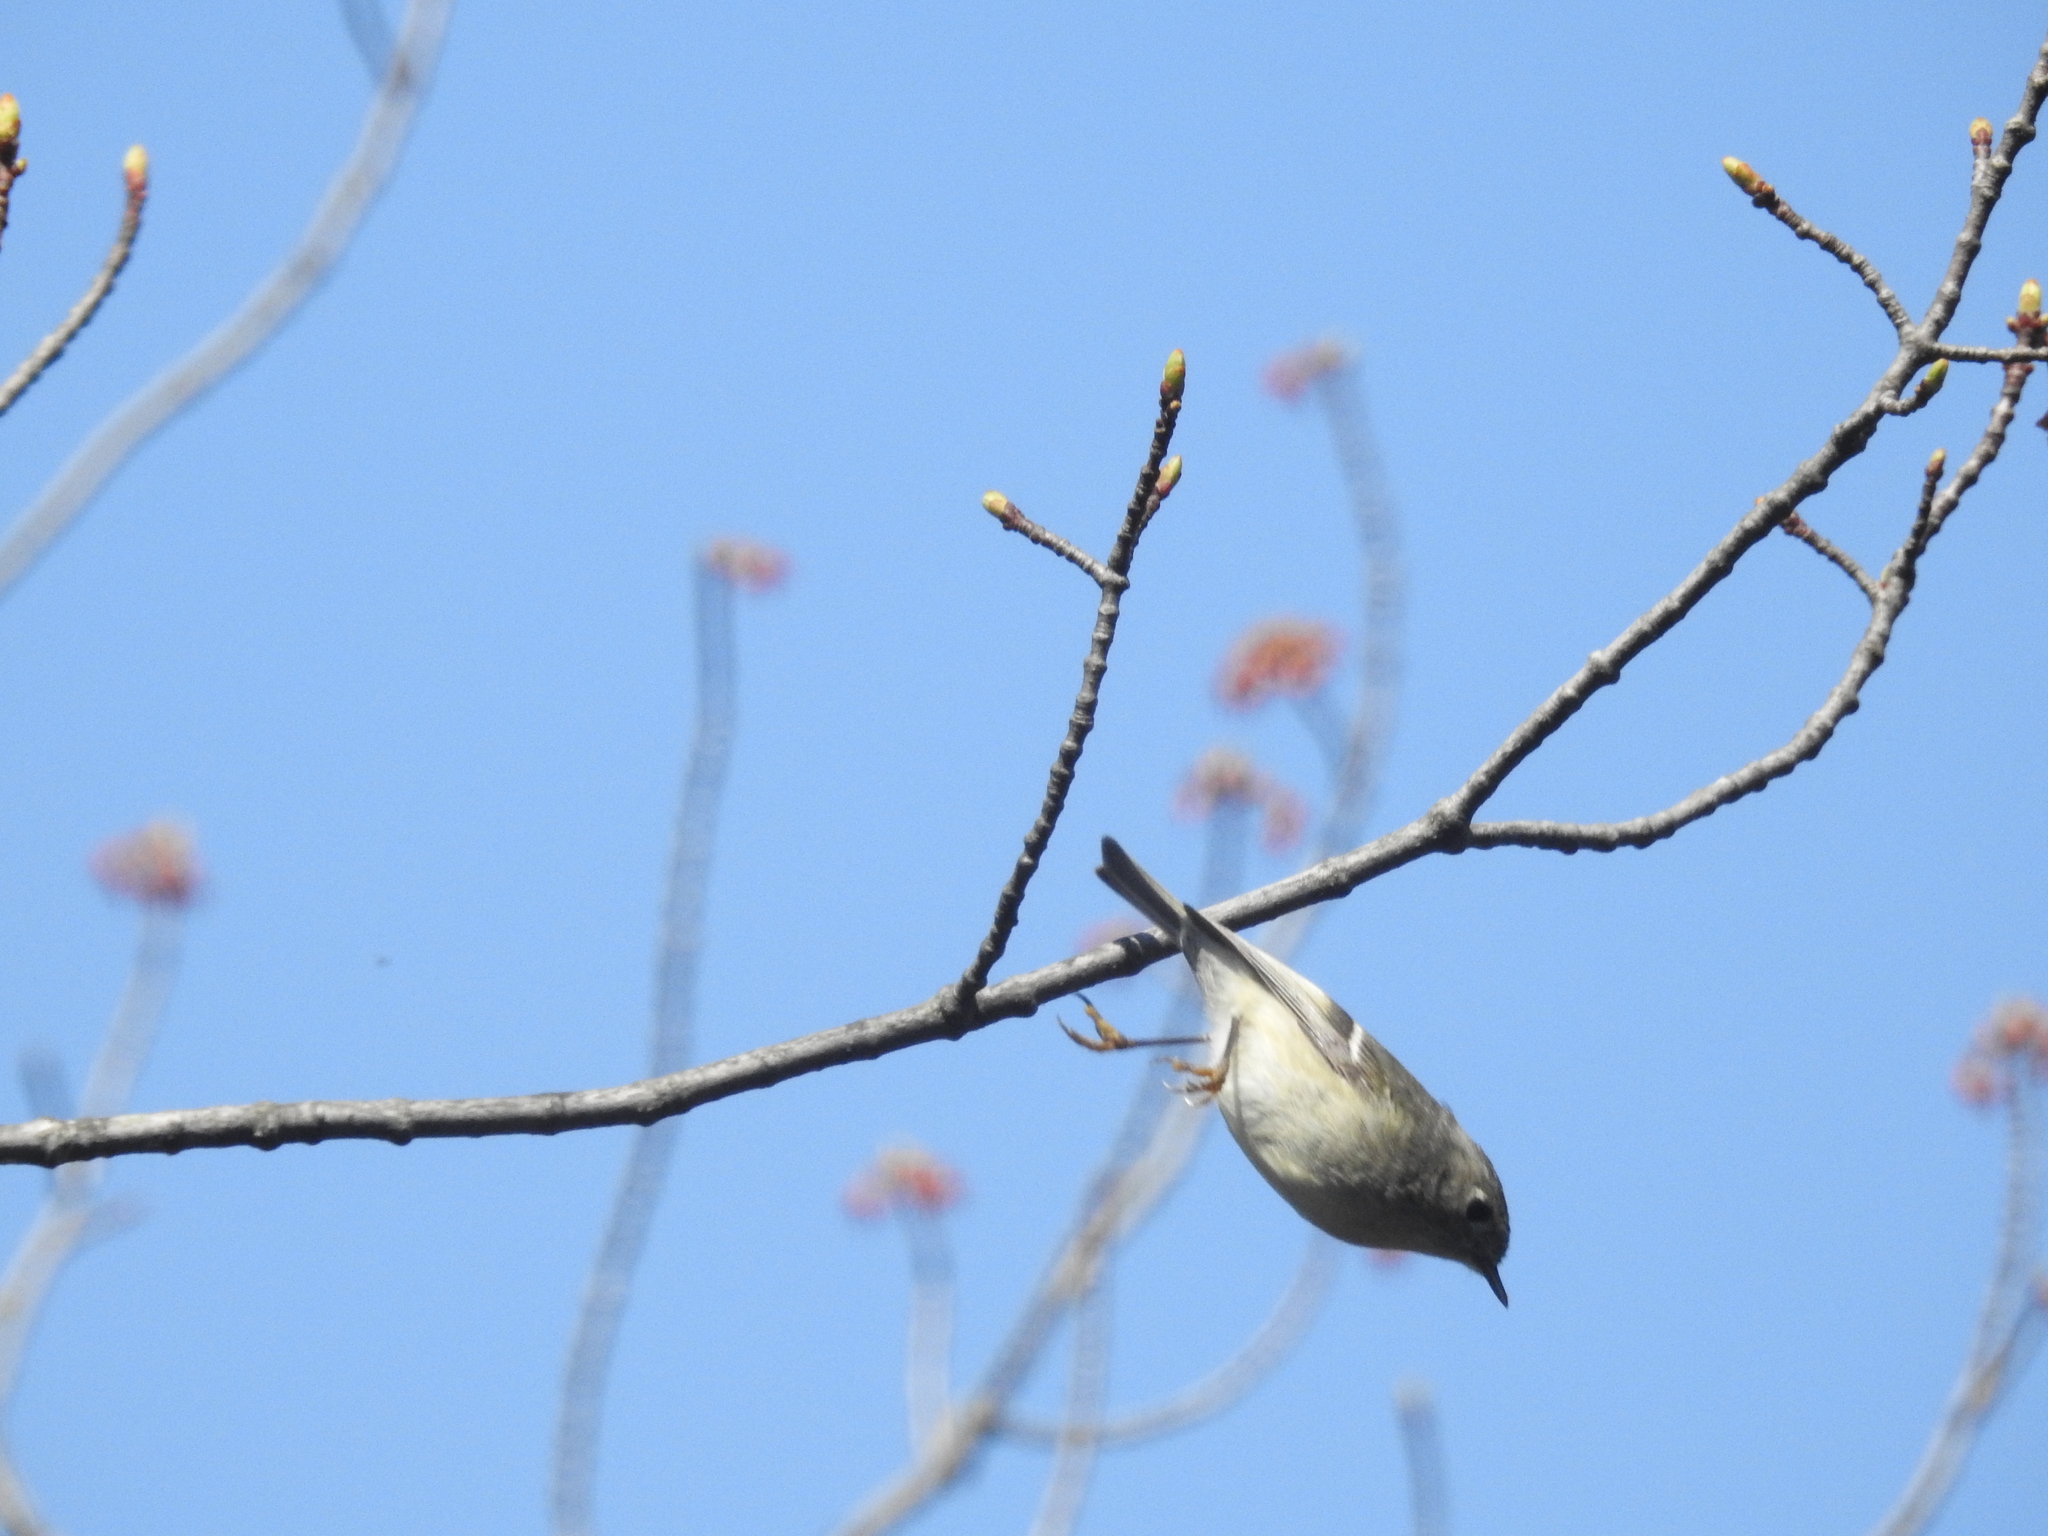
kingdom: Animalia
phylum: Chordata
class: Aves
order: Passeriformes
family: Regulidae
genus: Regulus
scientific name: Regulus calendula
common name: Ruby-crowned kinglet
